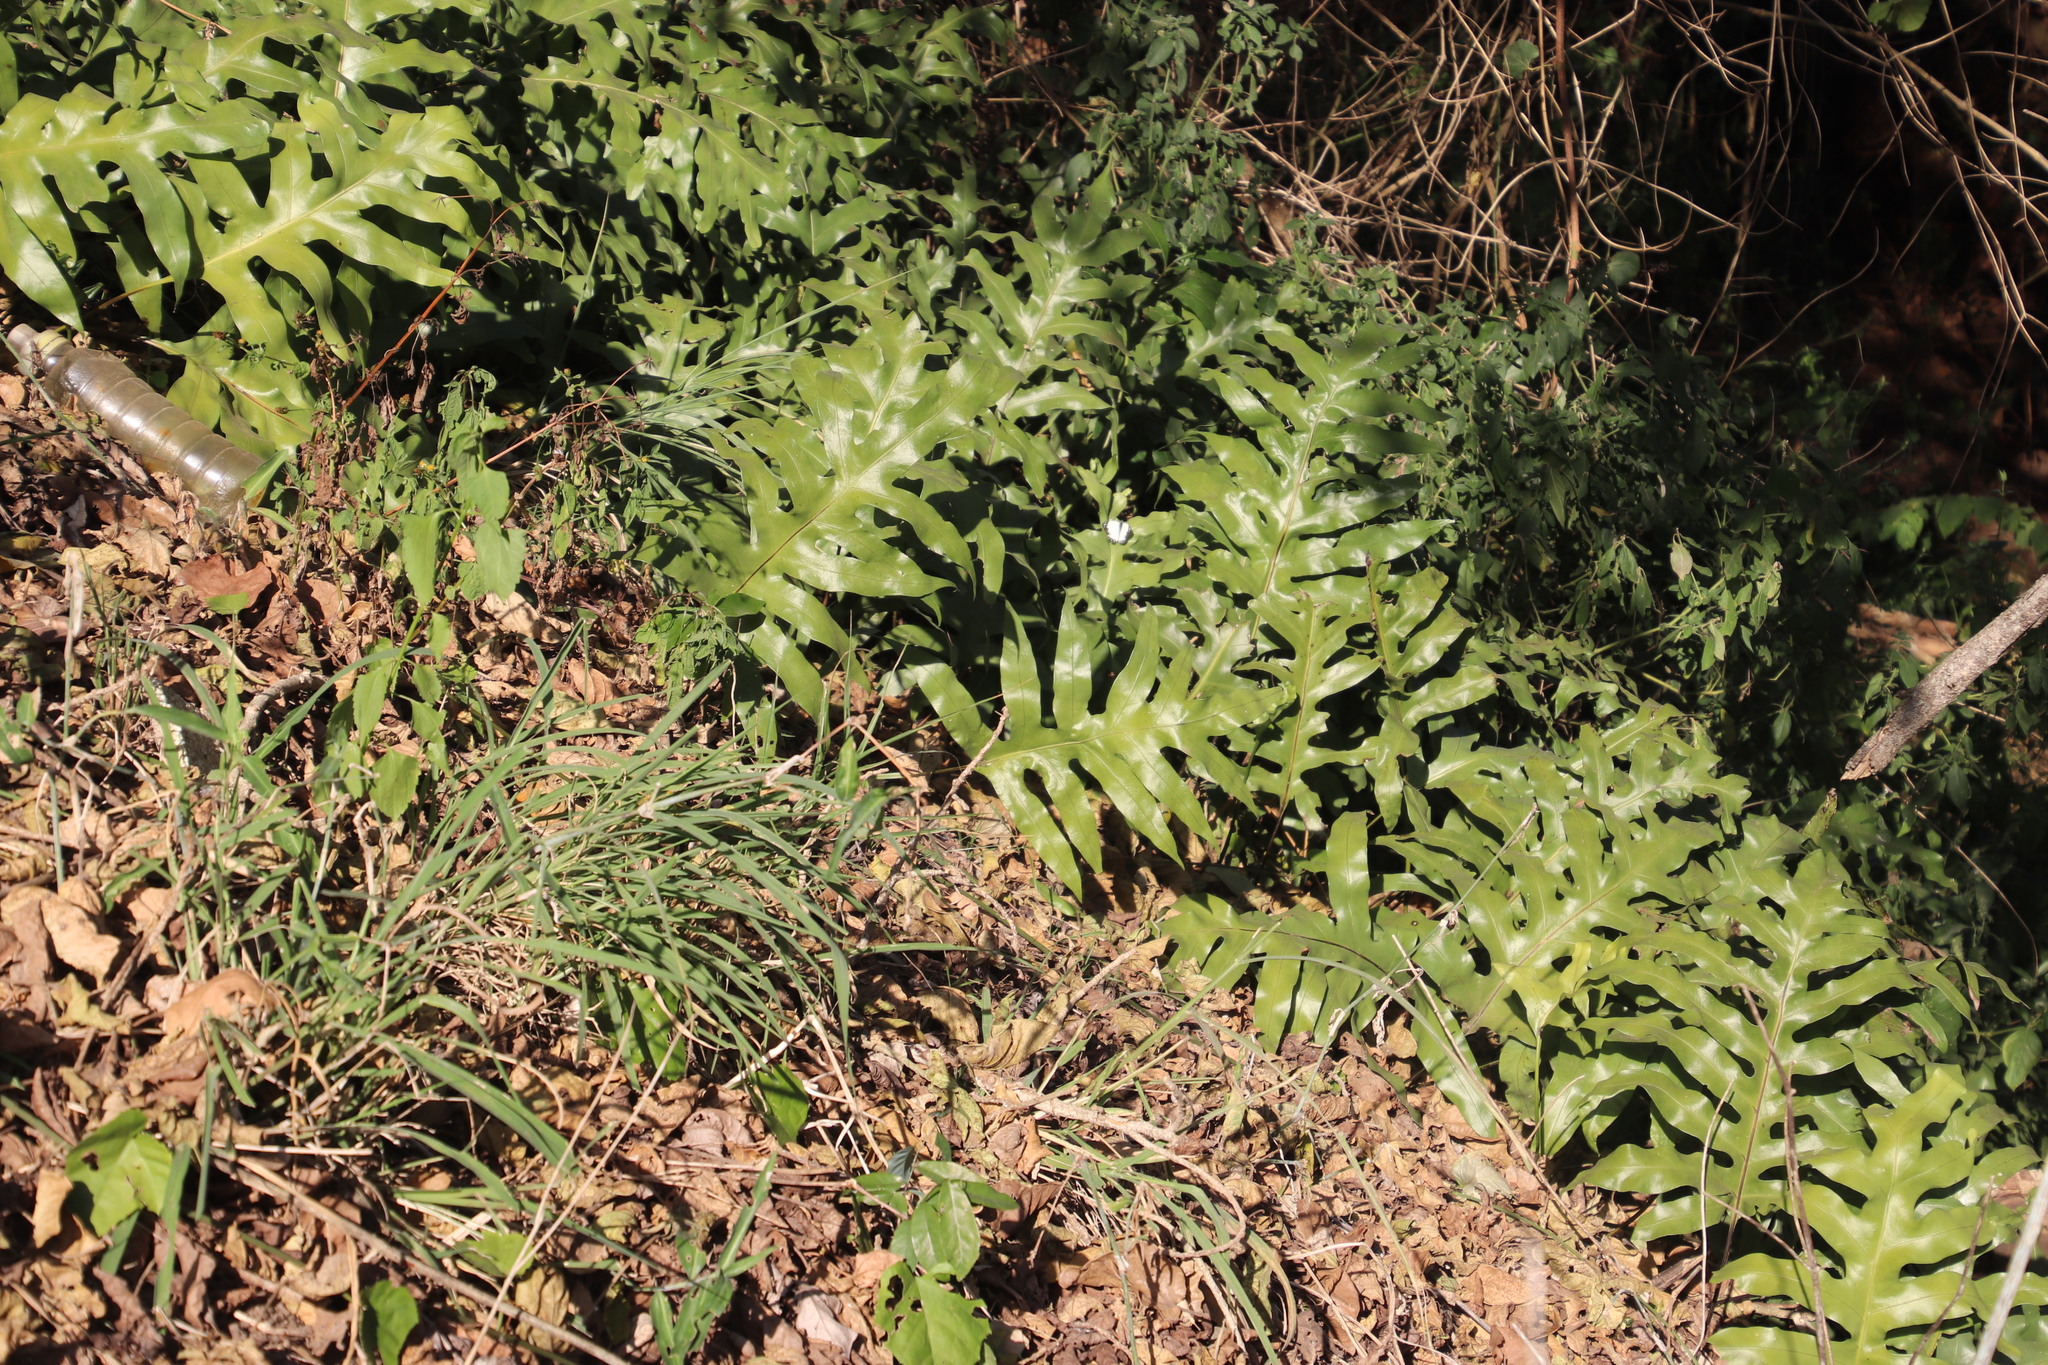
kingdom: Plantae
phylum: Tracheophyta
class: Polypodiopsida
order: Polypodiales
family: Polypodiaceae
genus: Microsorum
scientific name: Microsorum scolopendria
